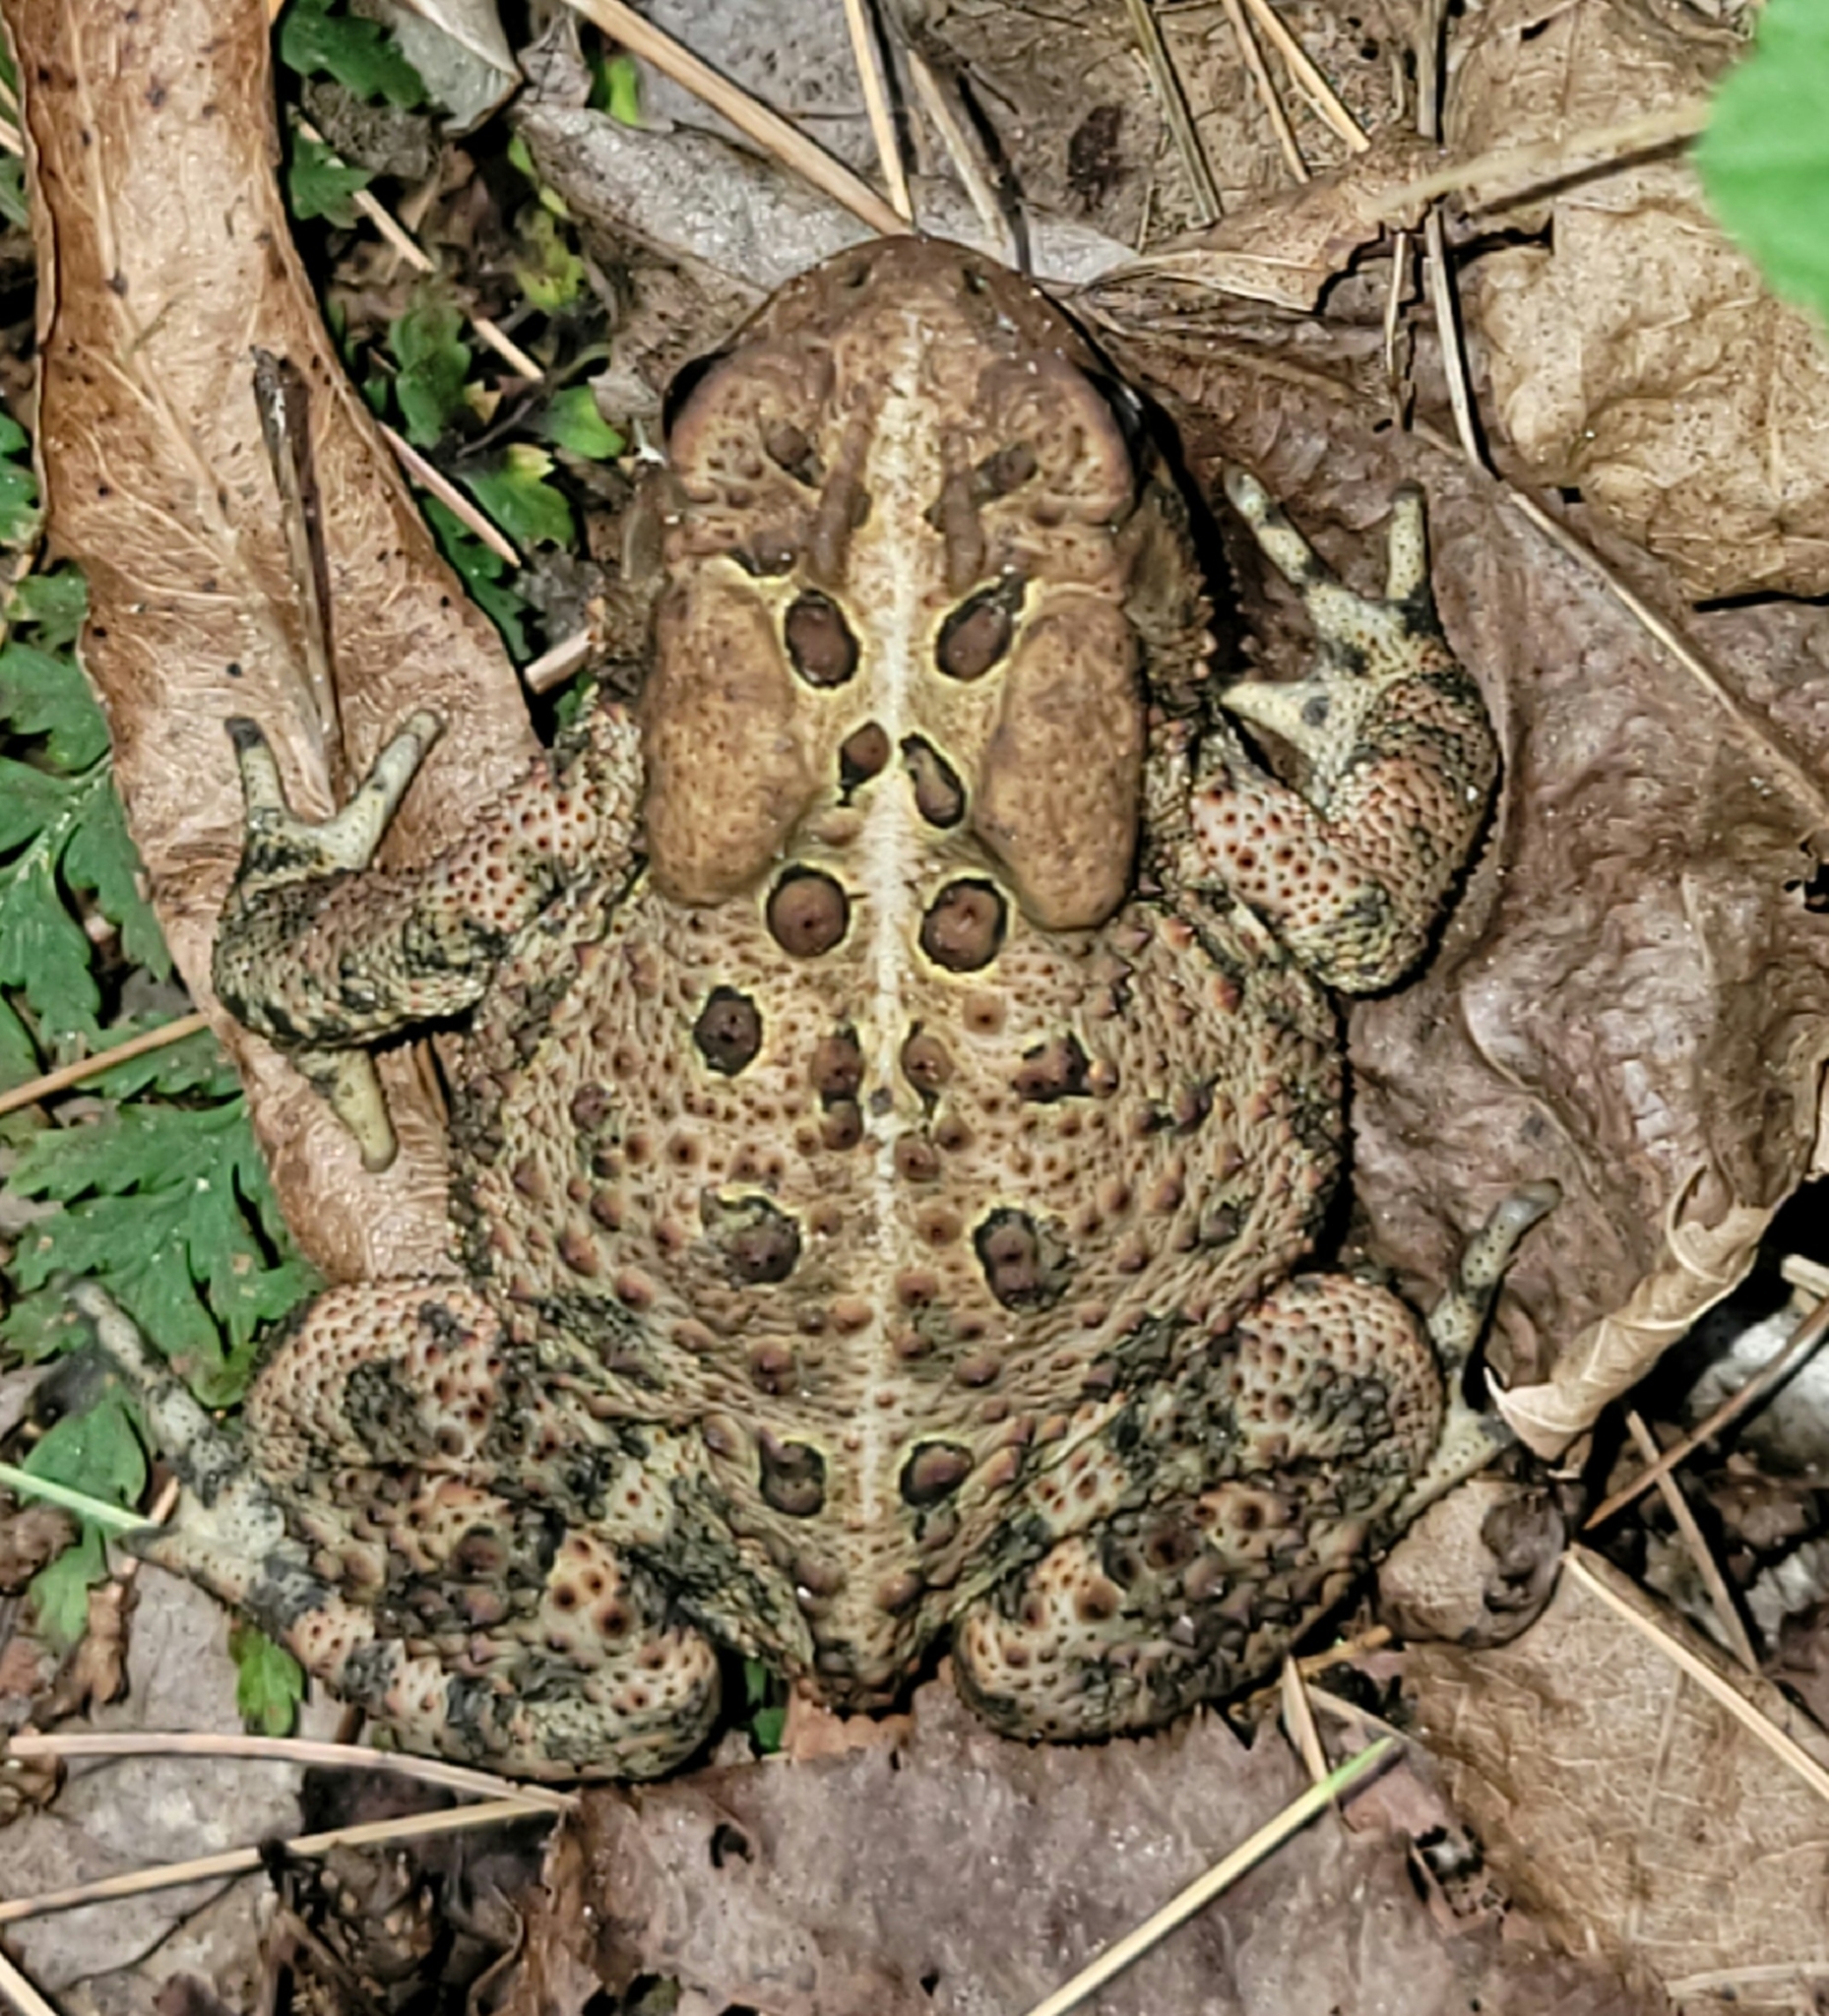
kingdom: Animalia
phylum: Chordata
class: Amphibia
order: Anura
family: Bufonidae
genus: Anaxyrus
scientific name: Anaxyrus americanus
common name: American toad
